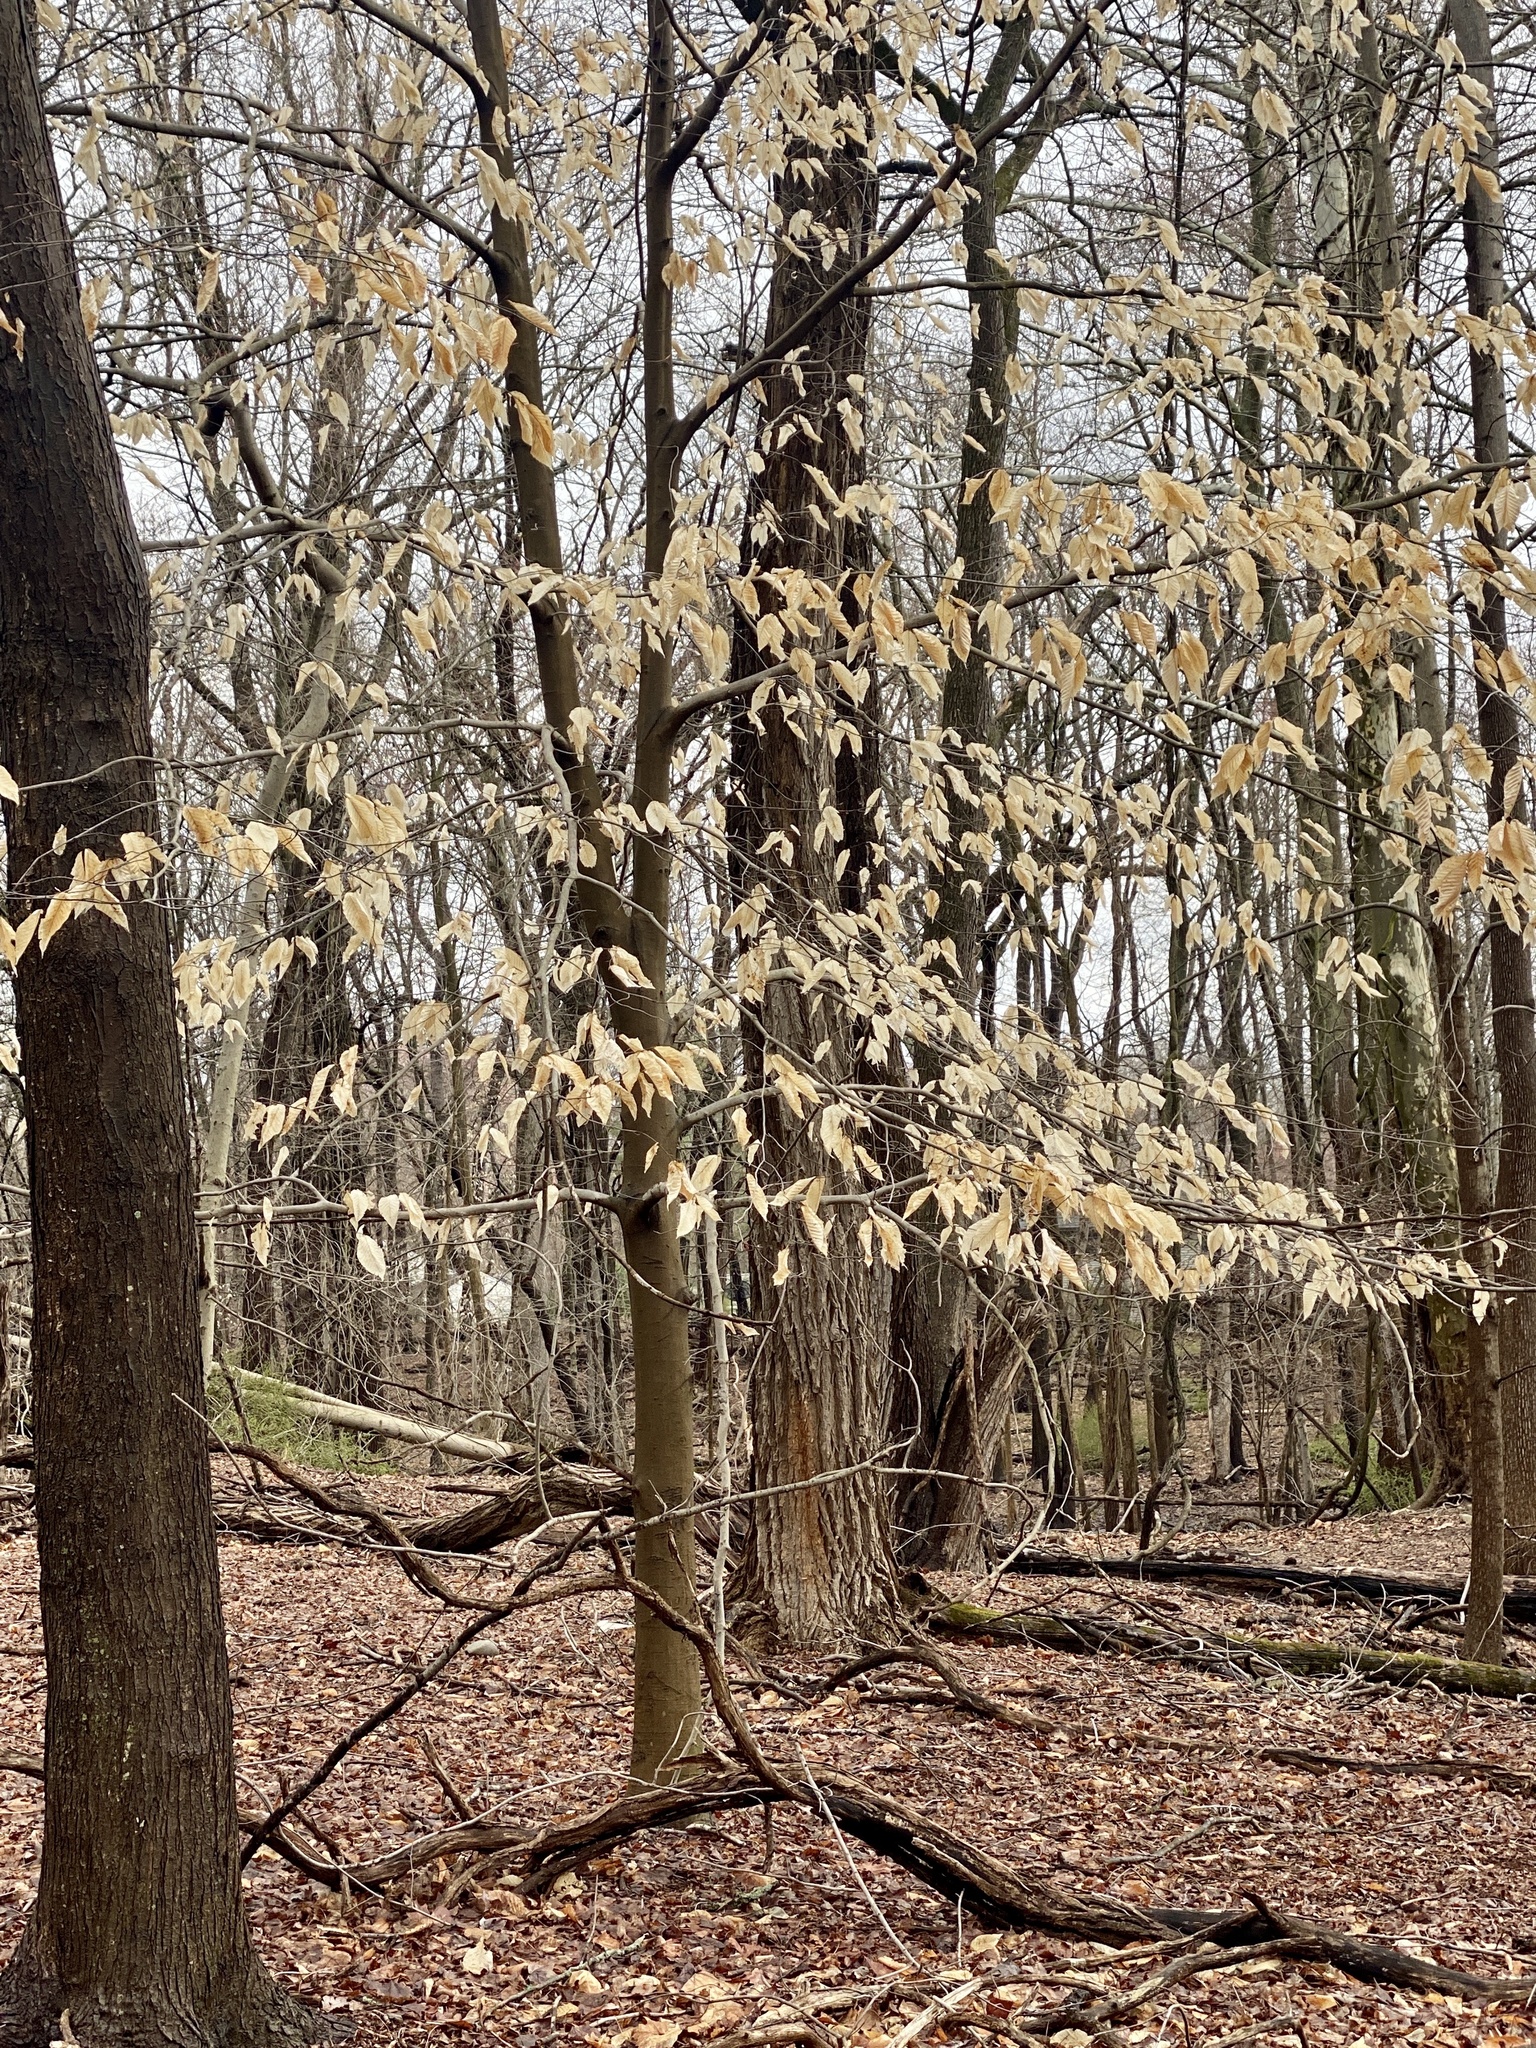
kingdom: Plantae
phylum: Tracheophyta
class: Magnoliopsida
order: Fagales
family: Fagaceae
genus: Fagus
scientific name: Fagus grandifolia
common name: American beech
